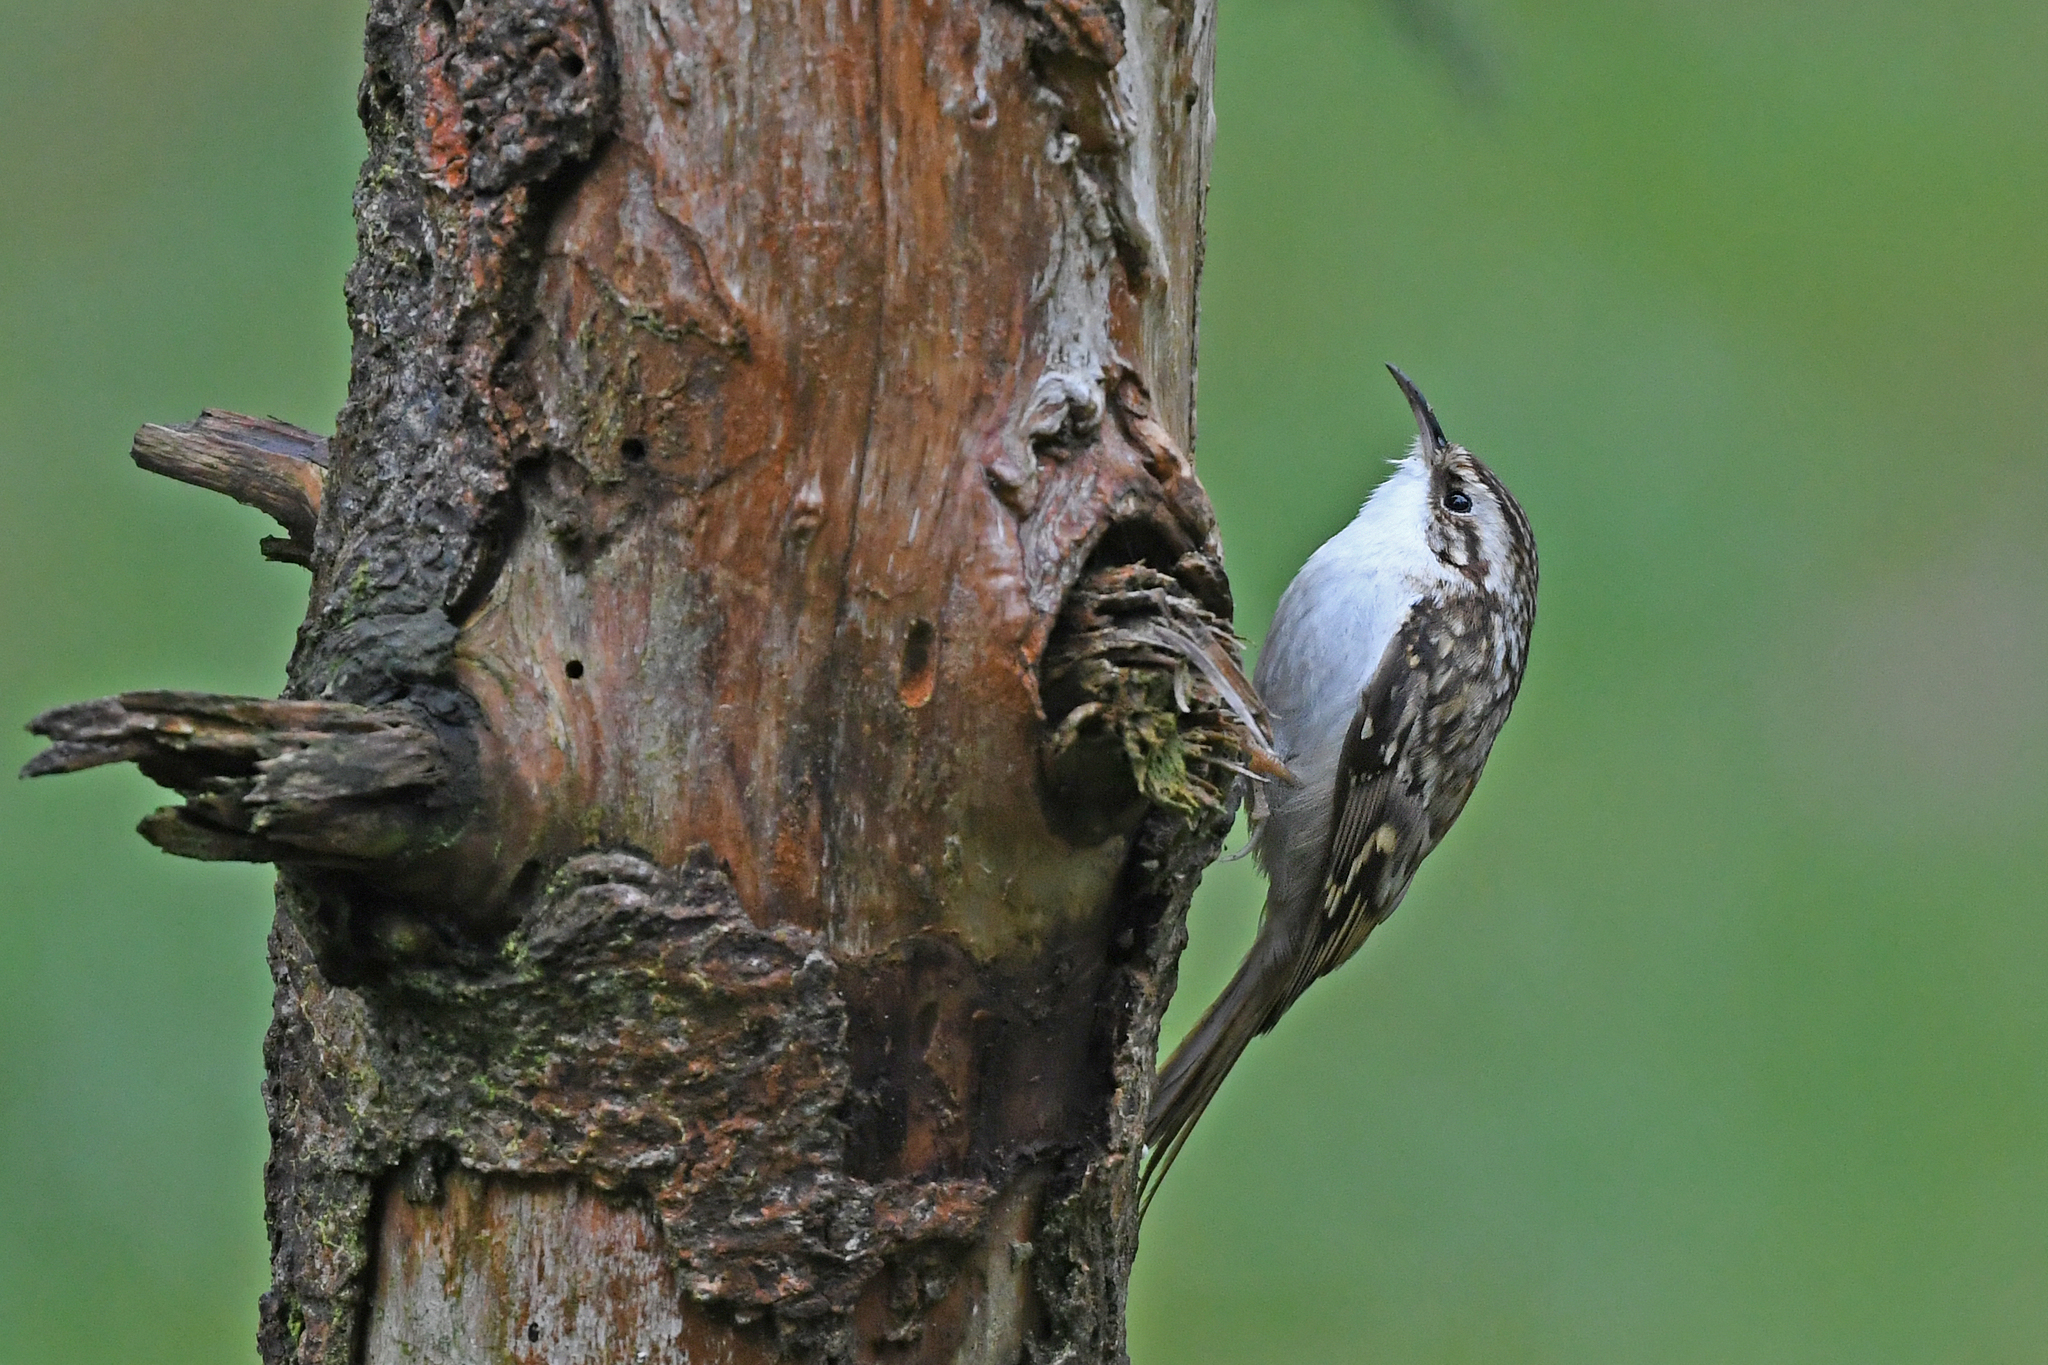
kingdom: Animalia
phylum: Chordata
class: Aves
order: Passeriformes
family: Certhiidae
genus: Certhia
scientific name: Certhia familiaris
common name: Eurasian treecreeper
